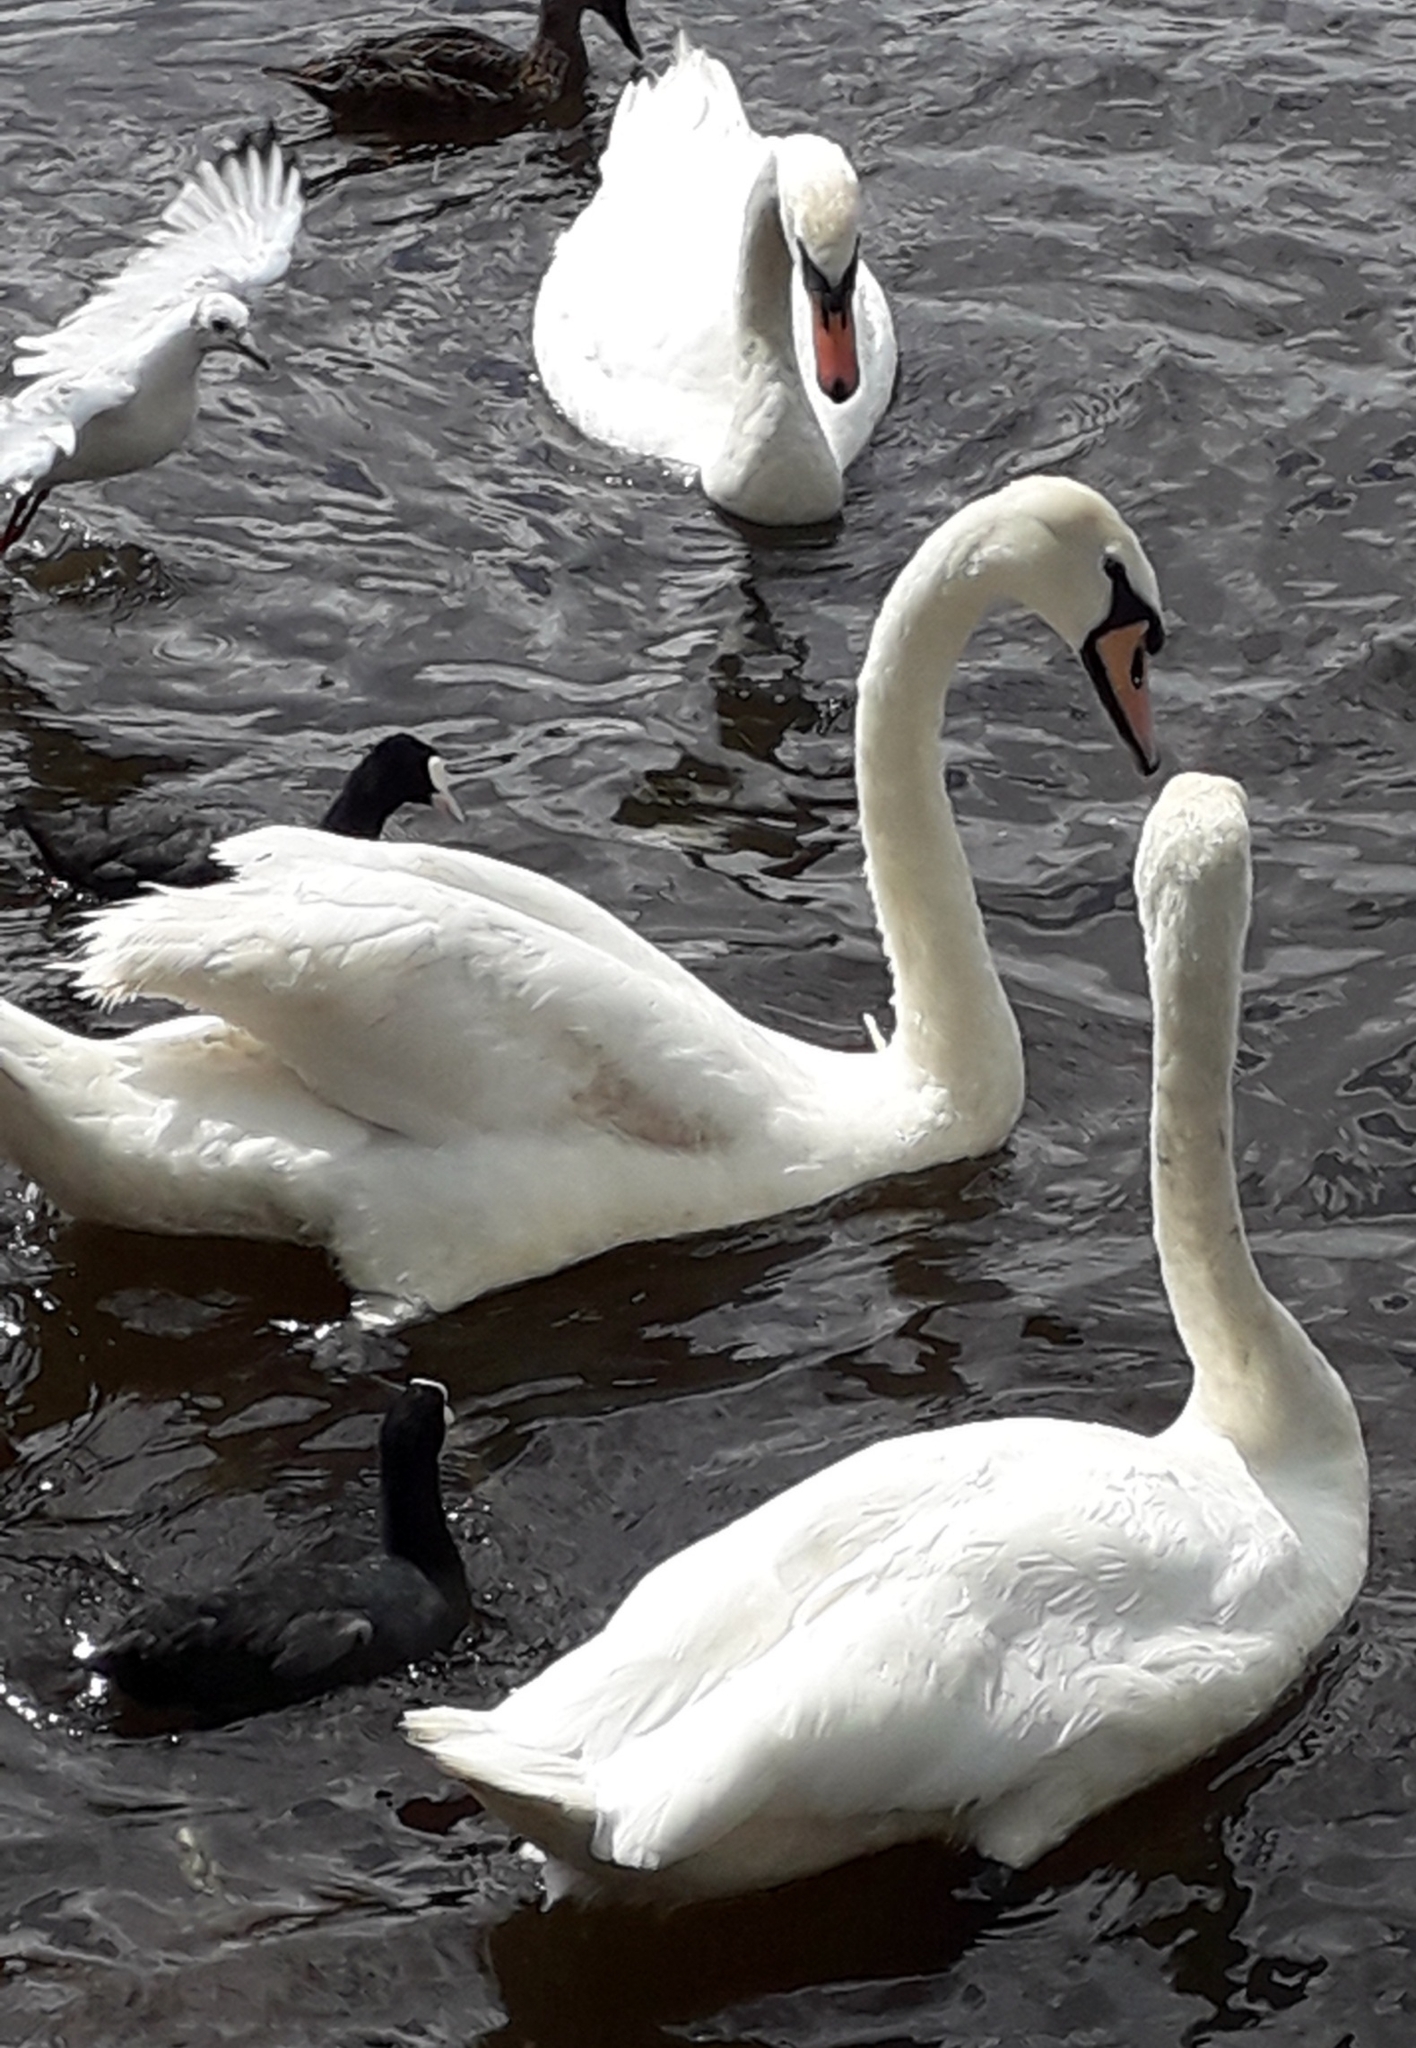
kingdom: Animalia
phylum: Chordata
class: Aves
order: Anseriformes
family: Anatidae
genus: Cygnus
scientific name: Cygnus olor
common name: Mute swan
